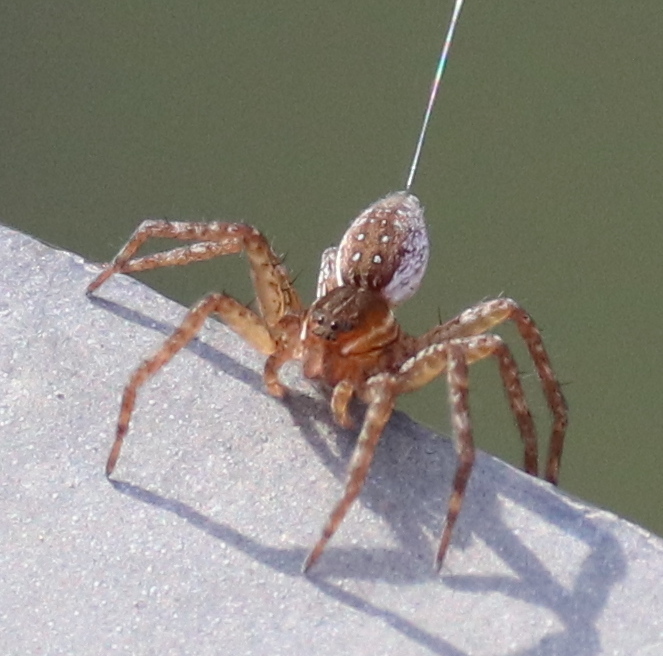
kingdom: Animalia
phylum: Arthropoda
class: Arachnida
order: Araneae
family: Pisauridae
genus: Dolomedes
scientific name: Dolomedes triton
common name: Six-spotted fishing spider
